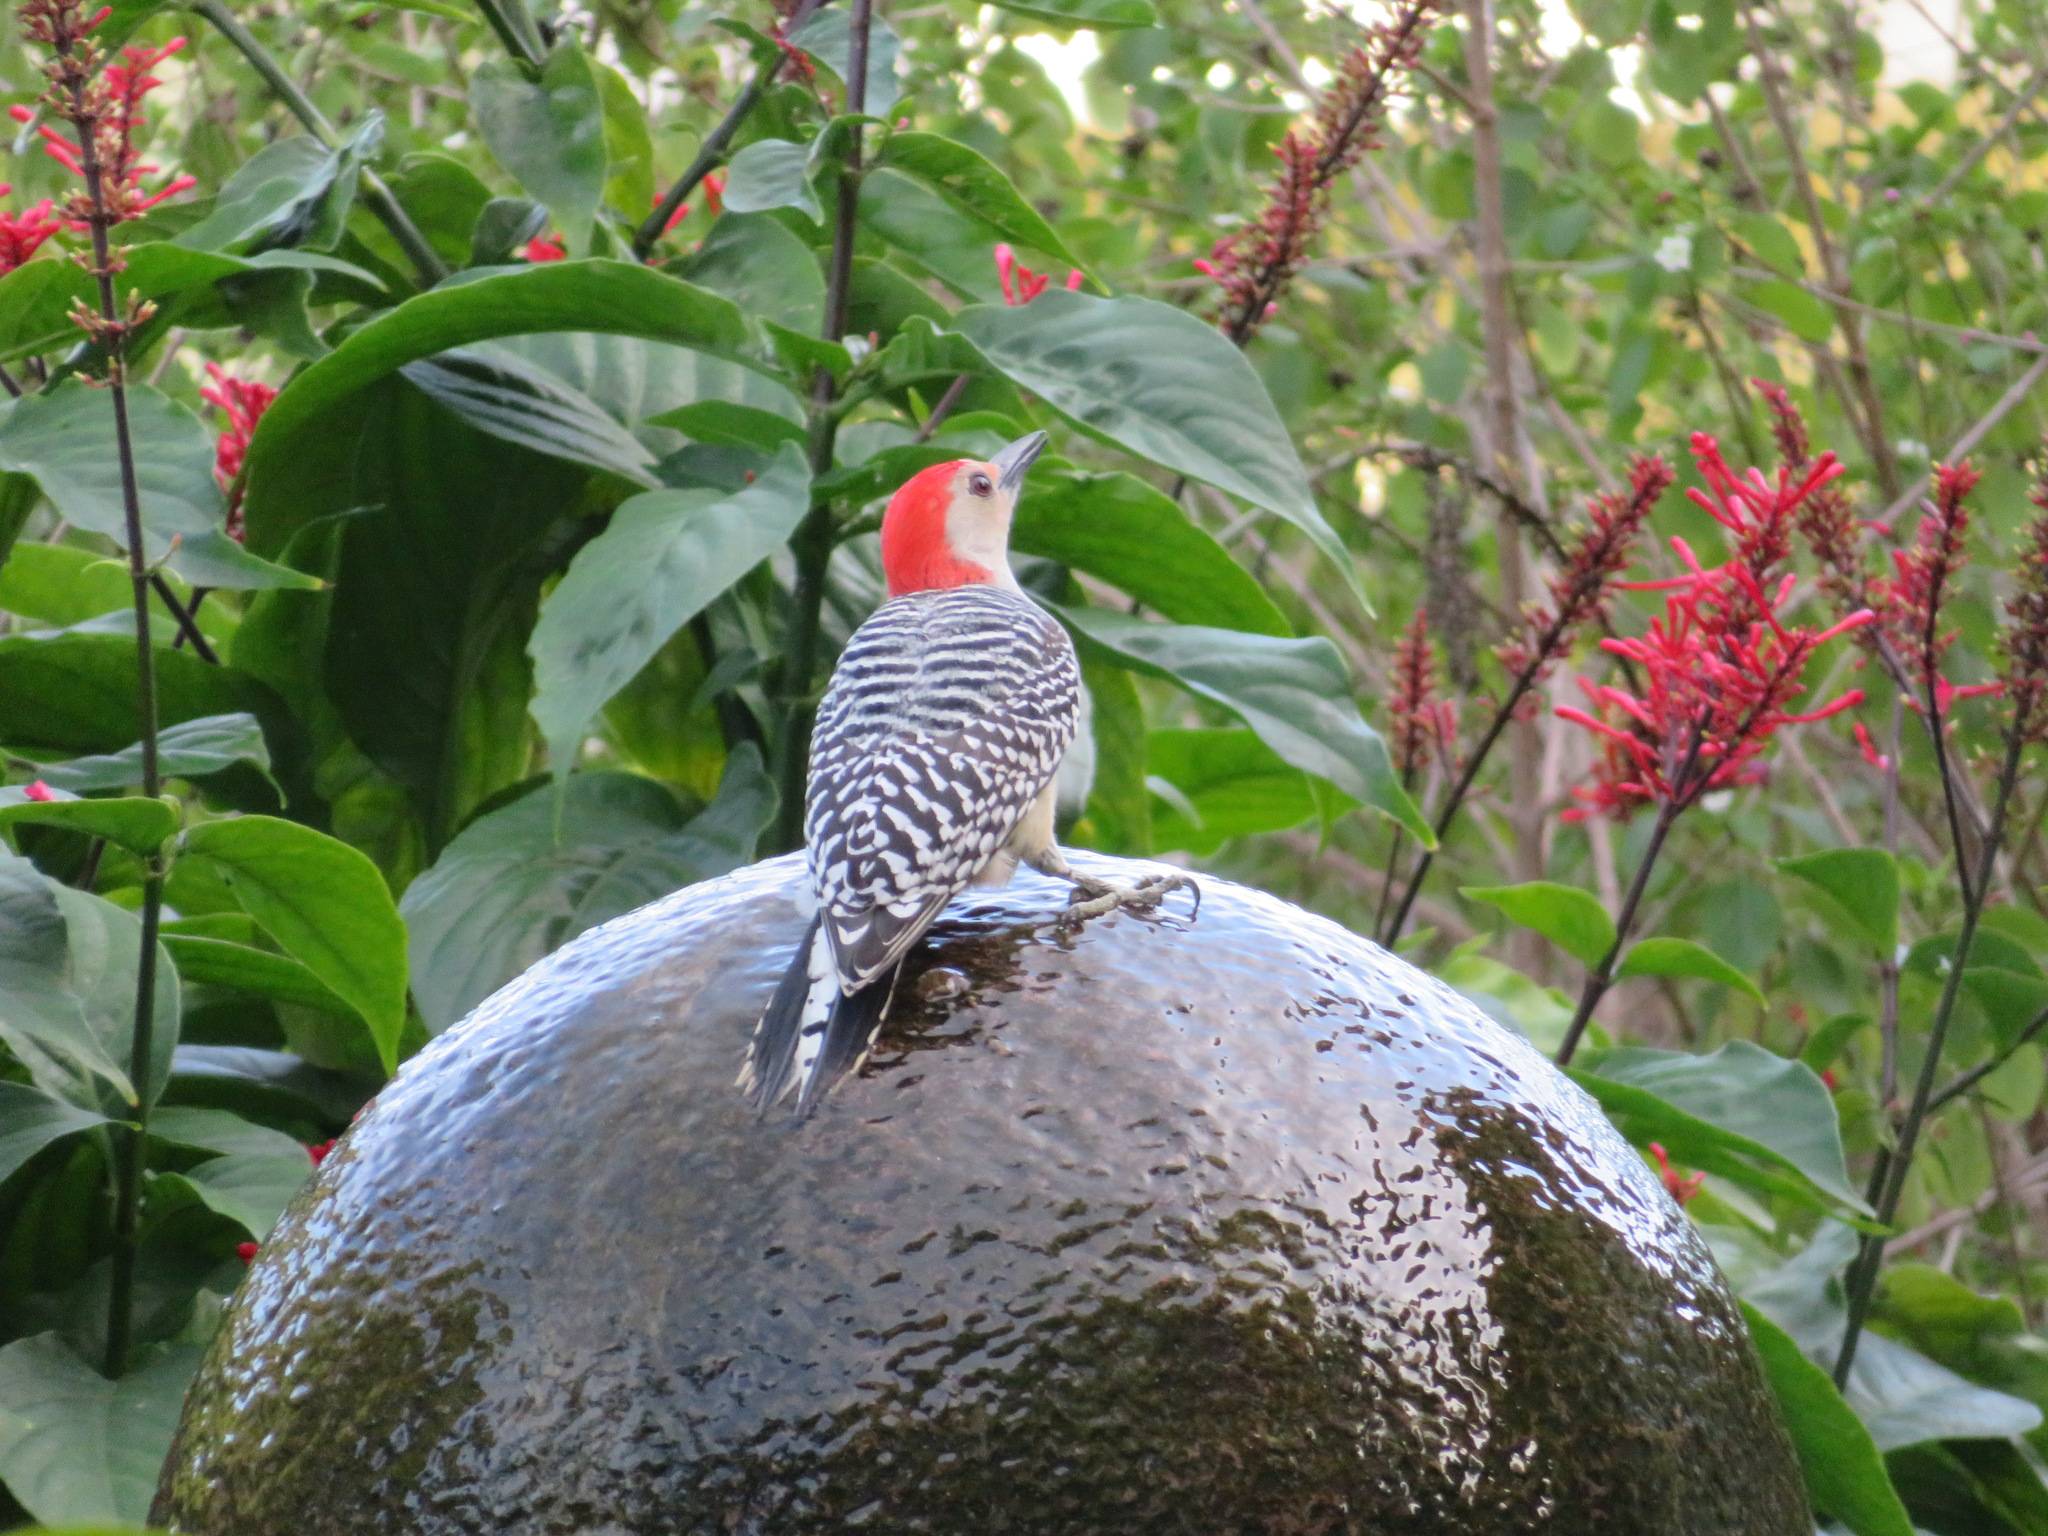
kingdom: Animalia
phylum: Chordata
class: Aves
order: Piciformes
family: Picidae
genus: Melanerpes
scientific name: Melanerpes carolinus
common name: Red-bellied woodpecker
